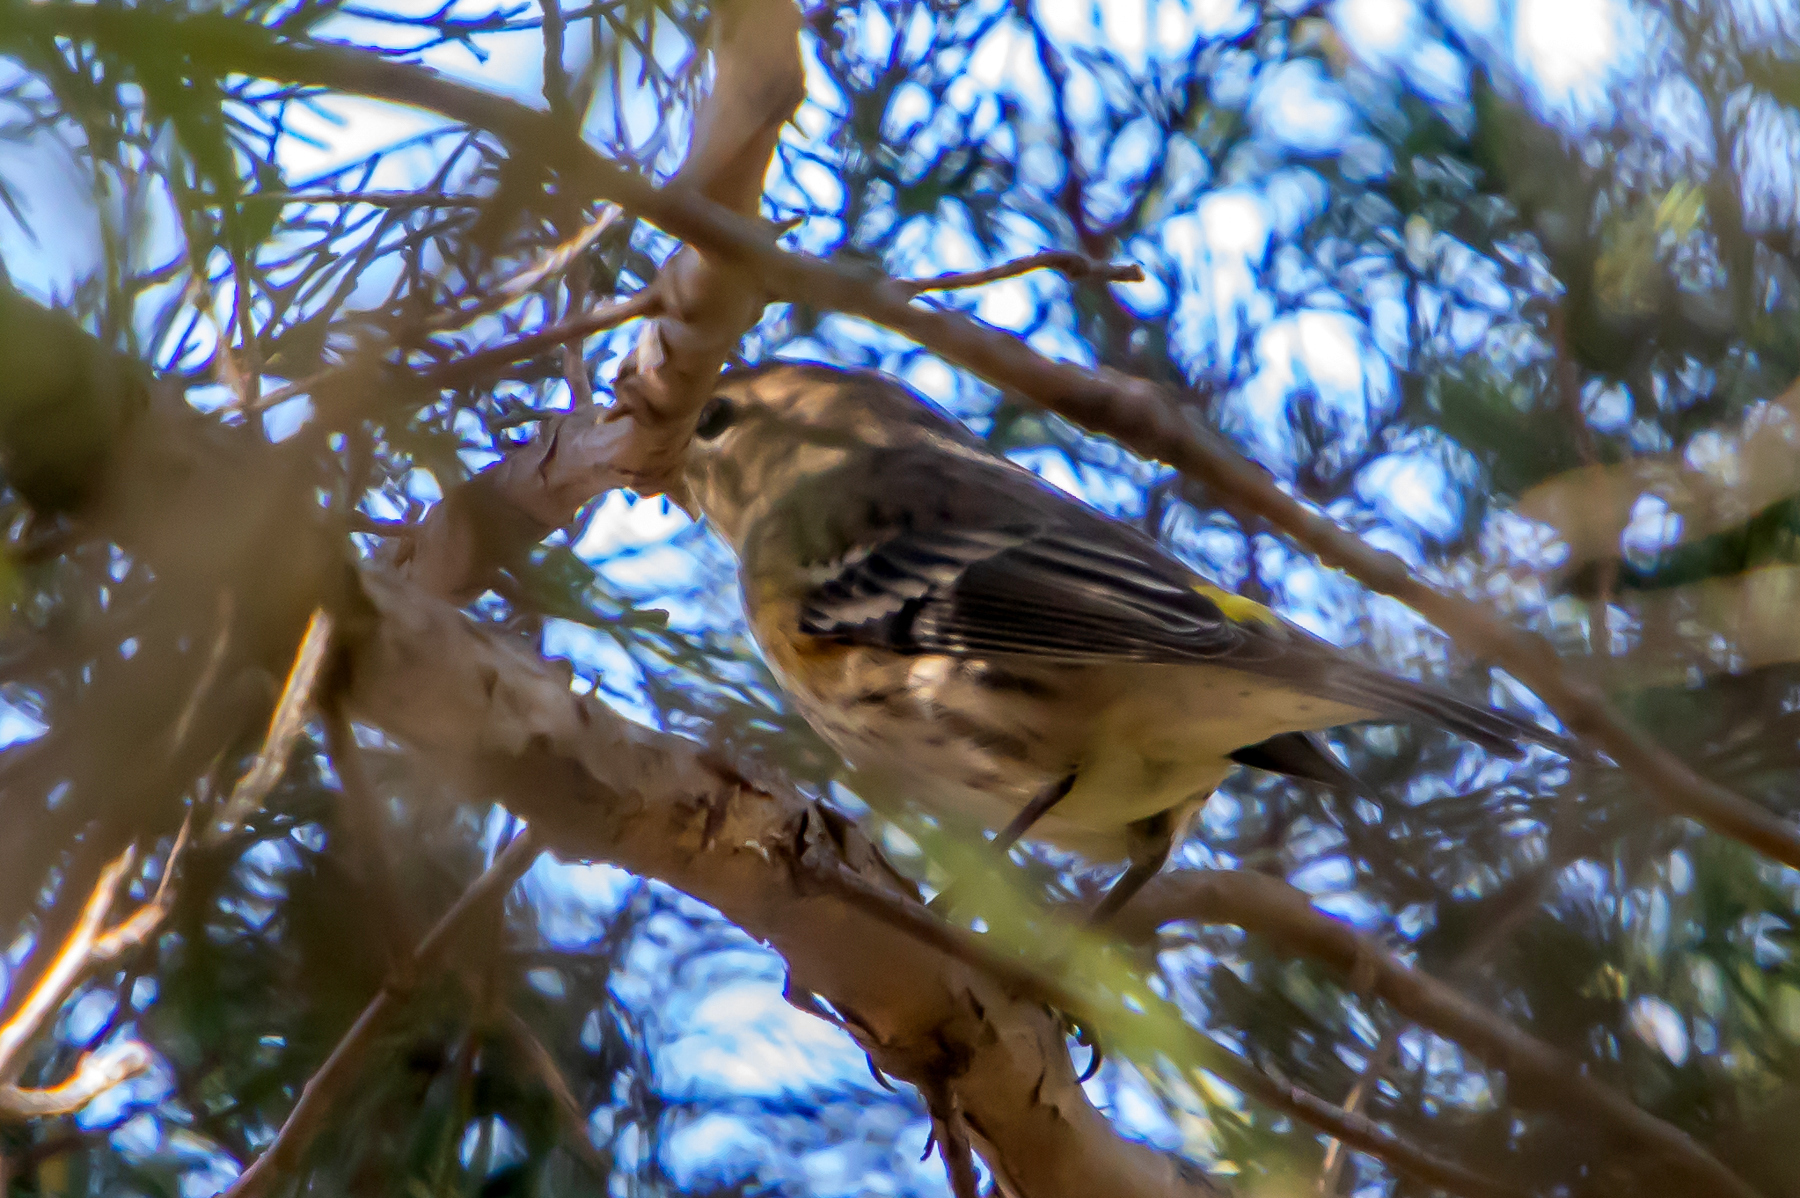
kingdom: Animalia
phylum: Chordata
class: Aves
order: Passeriformes
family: Parulidae
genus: Setophaga
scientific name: Setophaga coronata
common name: Myrtle warbler
